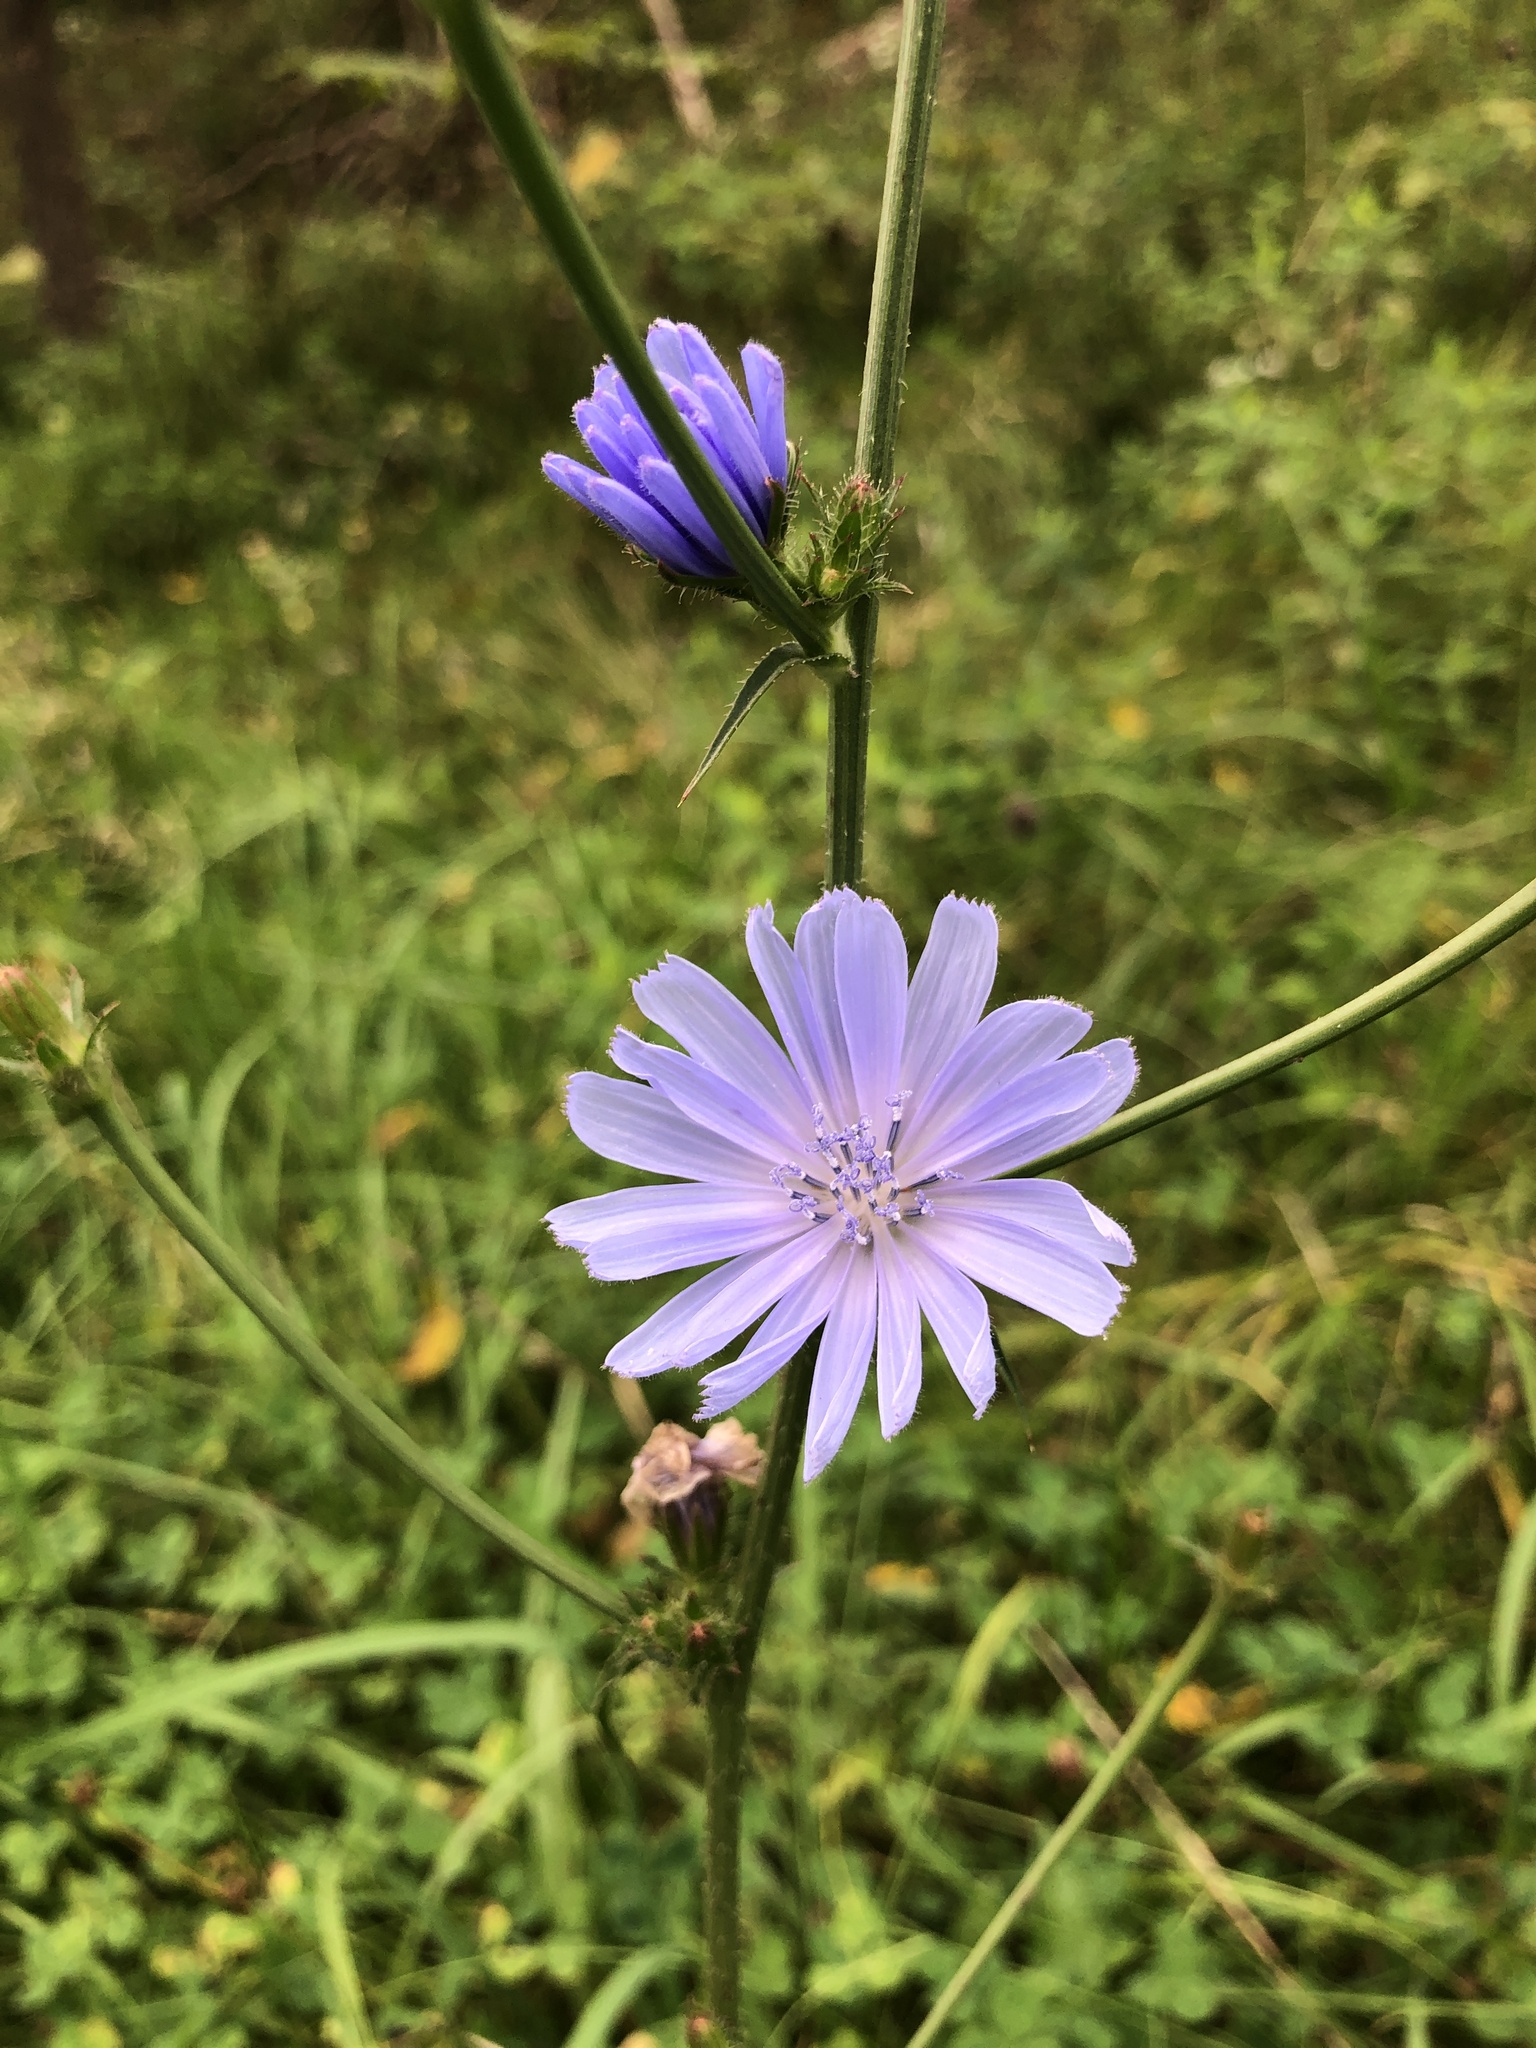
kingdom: Plantae
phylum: Tracheophyta
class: Magnoliopsida
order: Asterales
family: Asteraceae
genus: Cichorium
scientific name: Cichorium intybus
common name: Chicory
